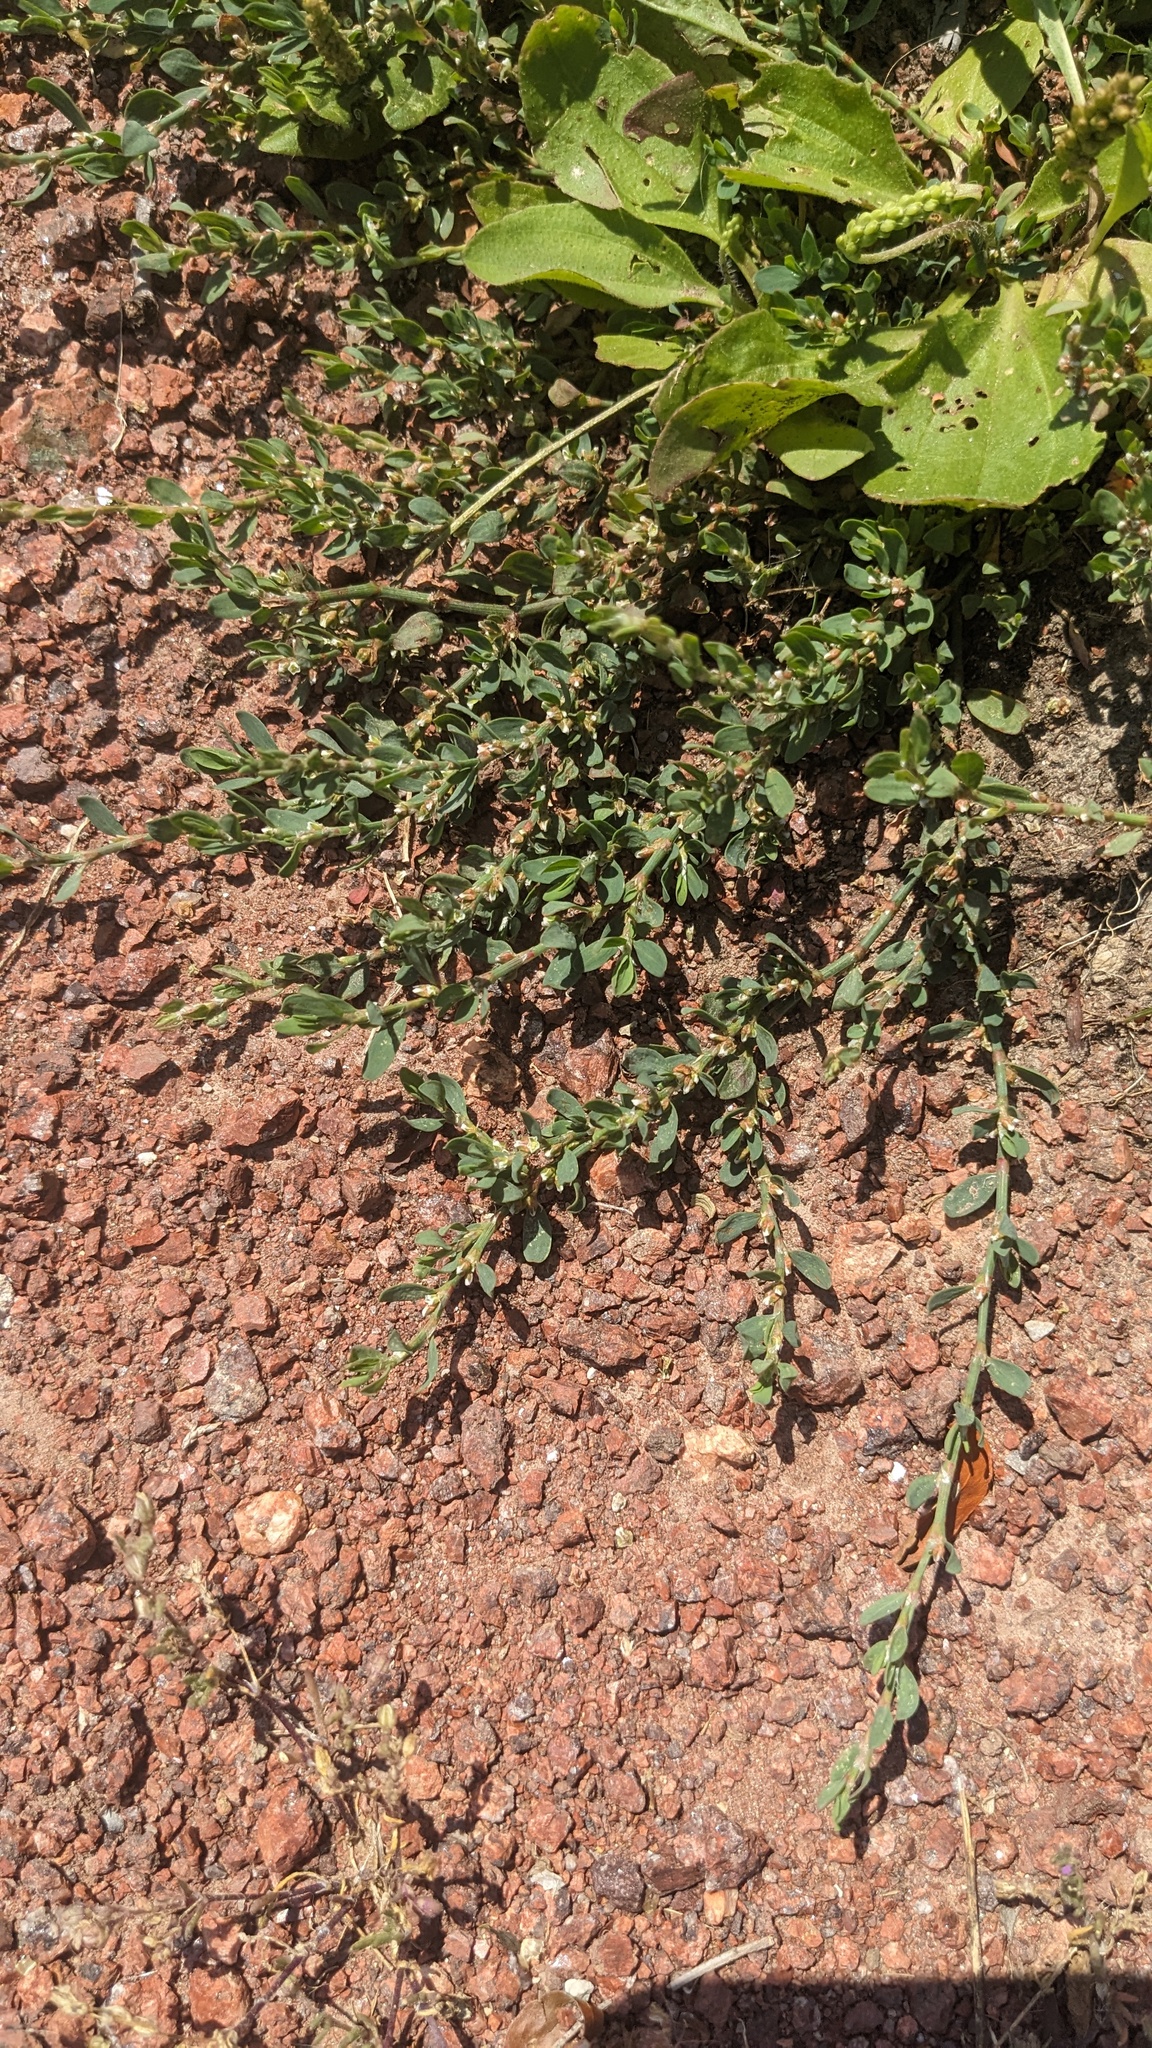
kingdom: Plantae
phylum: Tracheophyta
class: Magnoliopsida
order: Caryophyllales
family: Polygonaceae
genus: Polygonum
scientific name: Polygonum aviculare
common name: Prostrate knotweed
